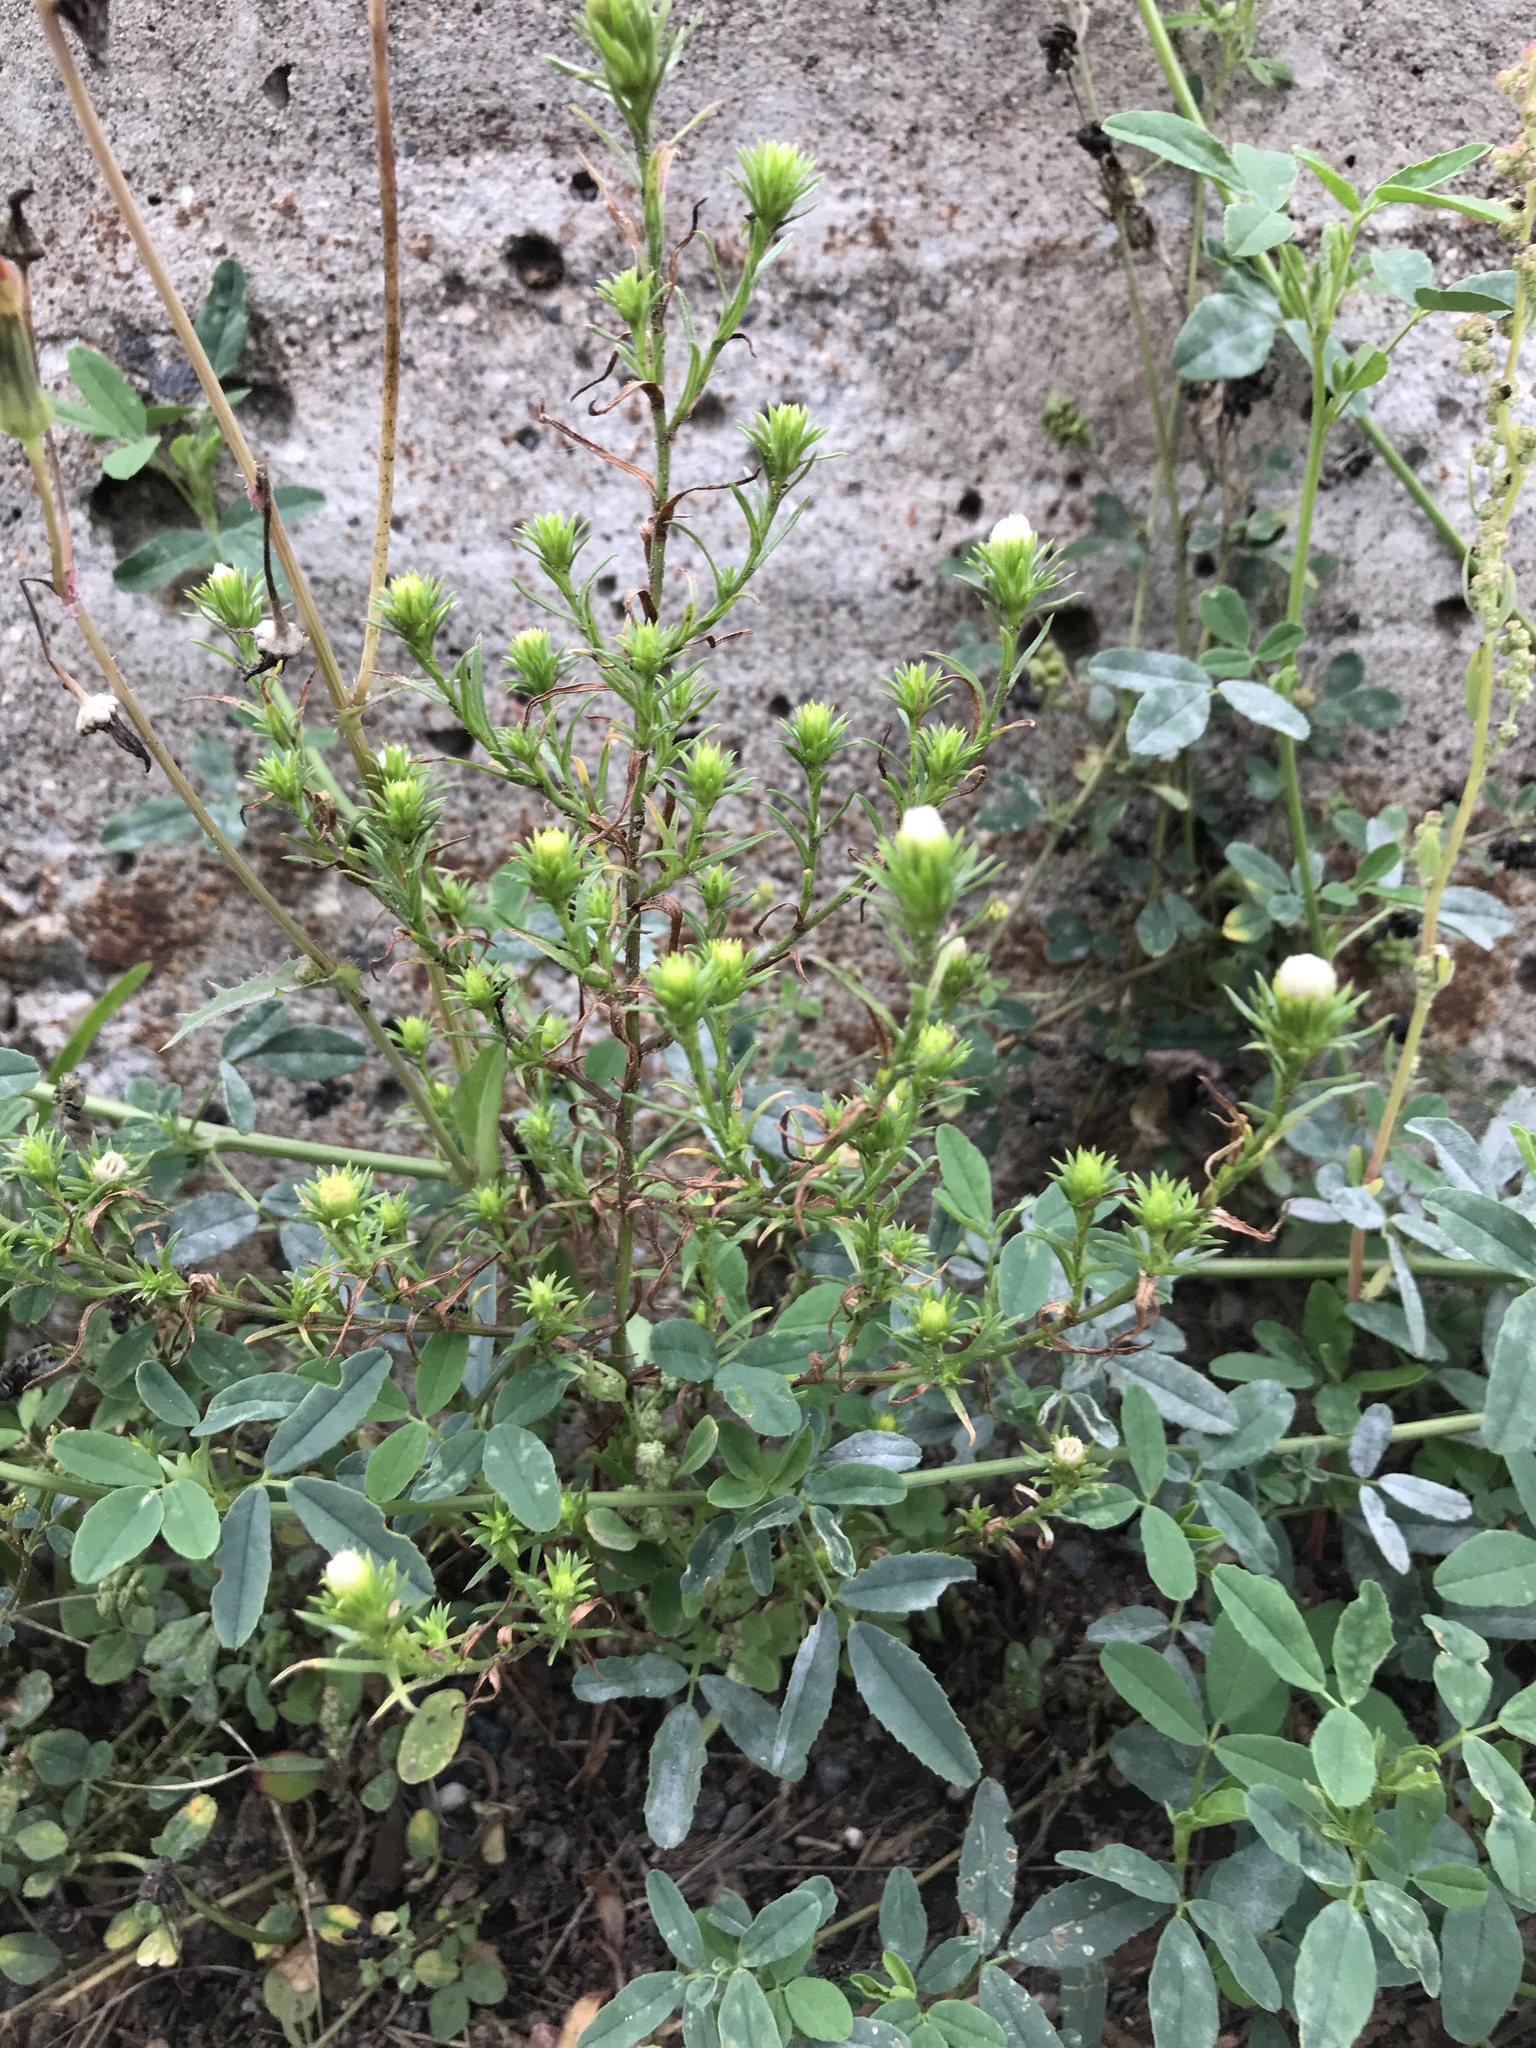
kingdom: Plantae
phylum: Tracheophyta
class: Magnoliopsida
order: Asterales
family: Asteraceae
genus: Symphyotrichum
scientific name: Symphyotrichum ciliatum
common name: Rayless annual aster
